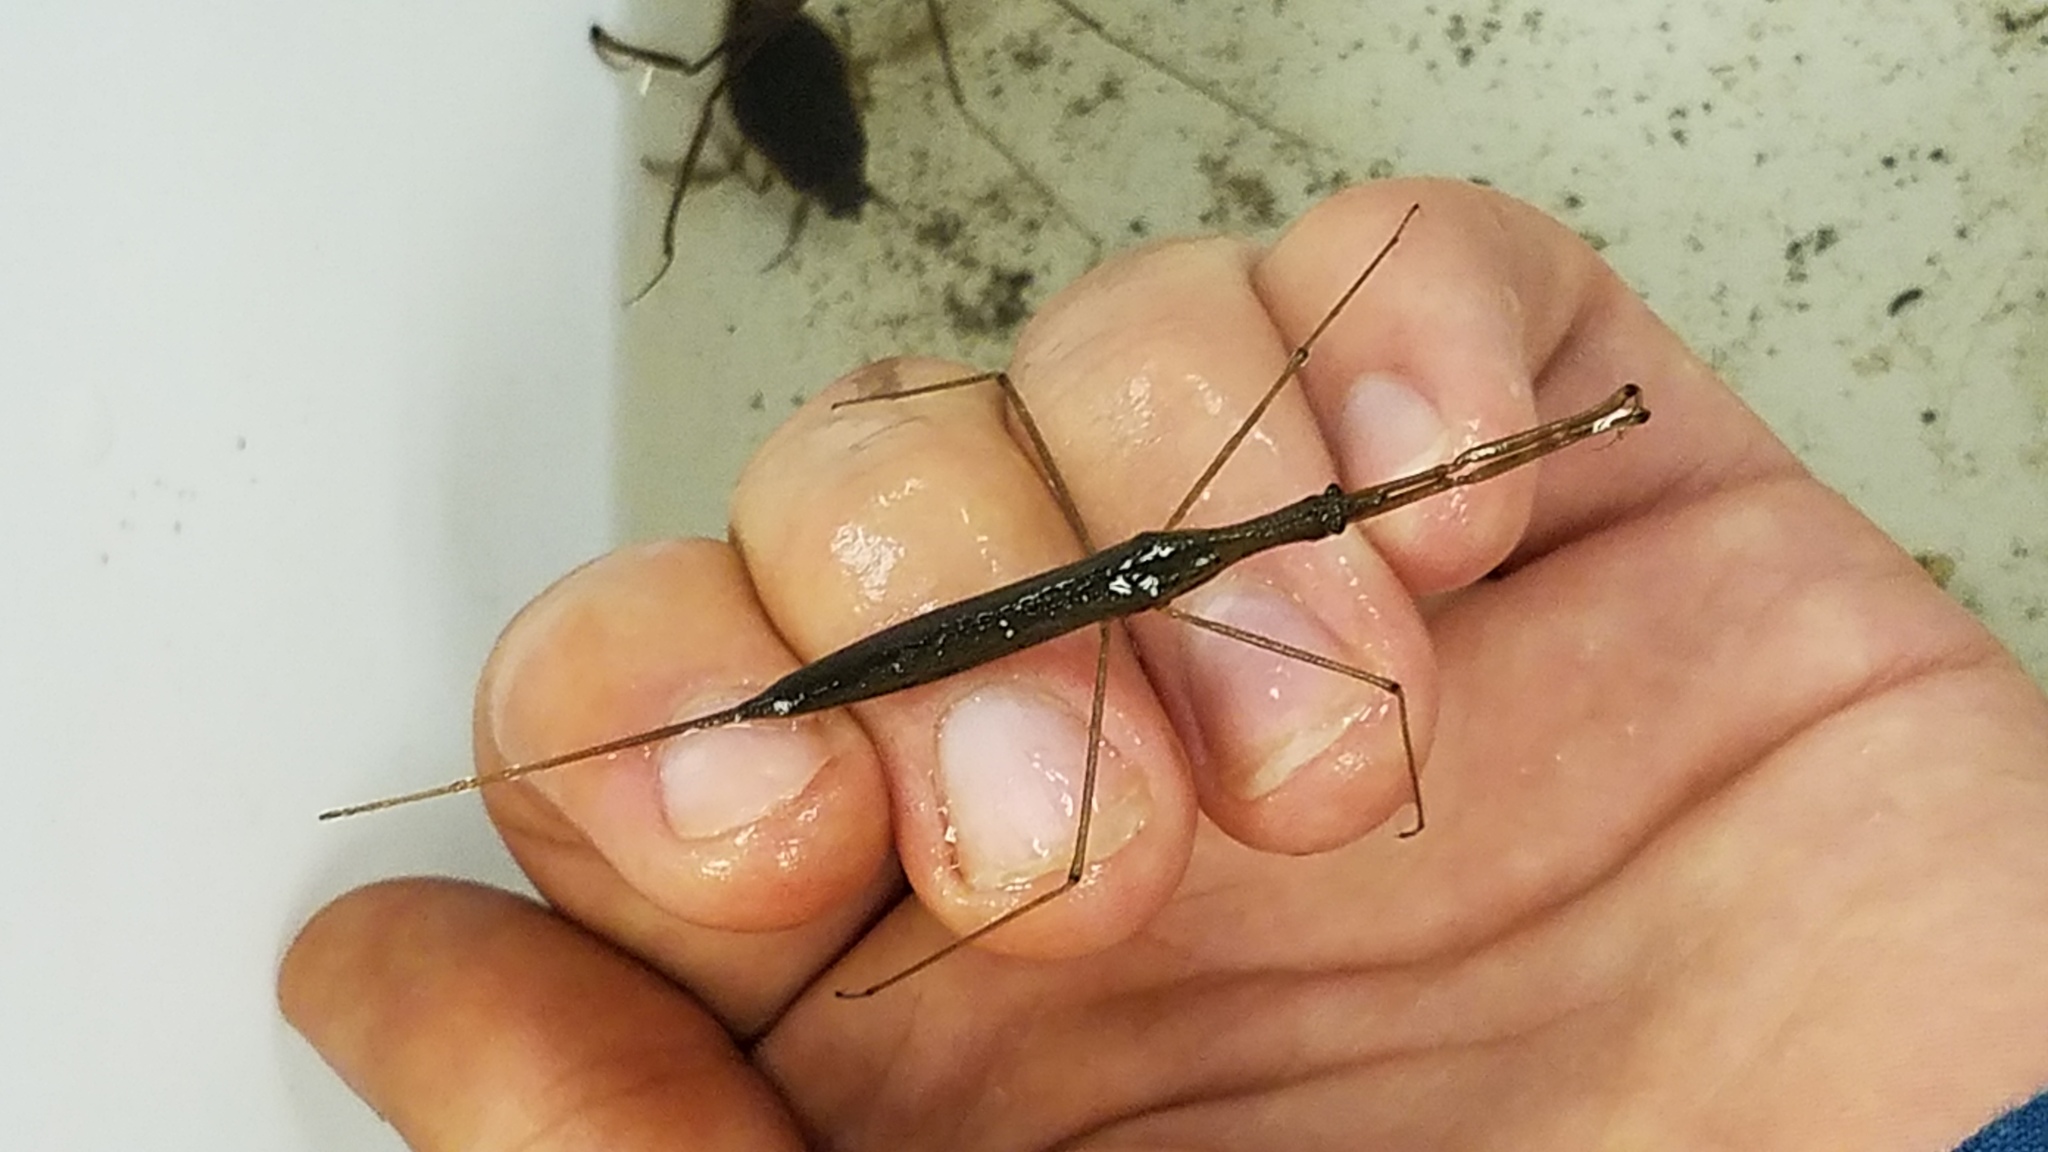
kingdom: Animalia
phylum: Arthropoda
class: Insecta
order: Hemiptera
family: Nepidae
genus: Ranatra
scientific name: Ranatra
